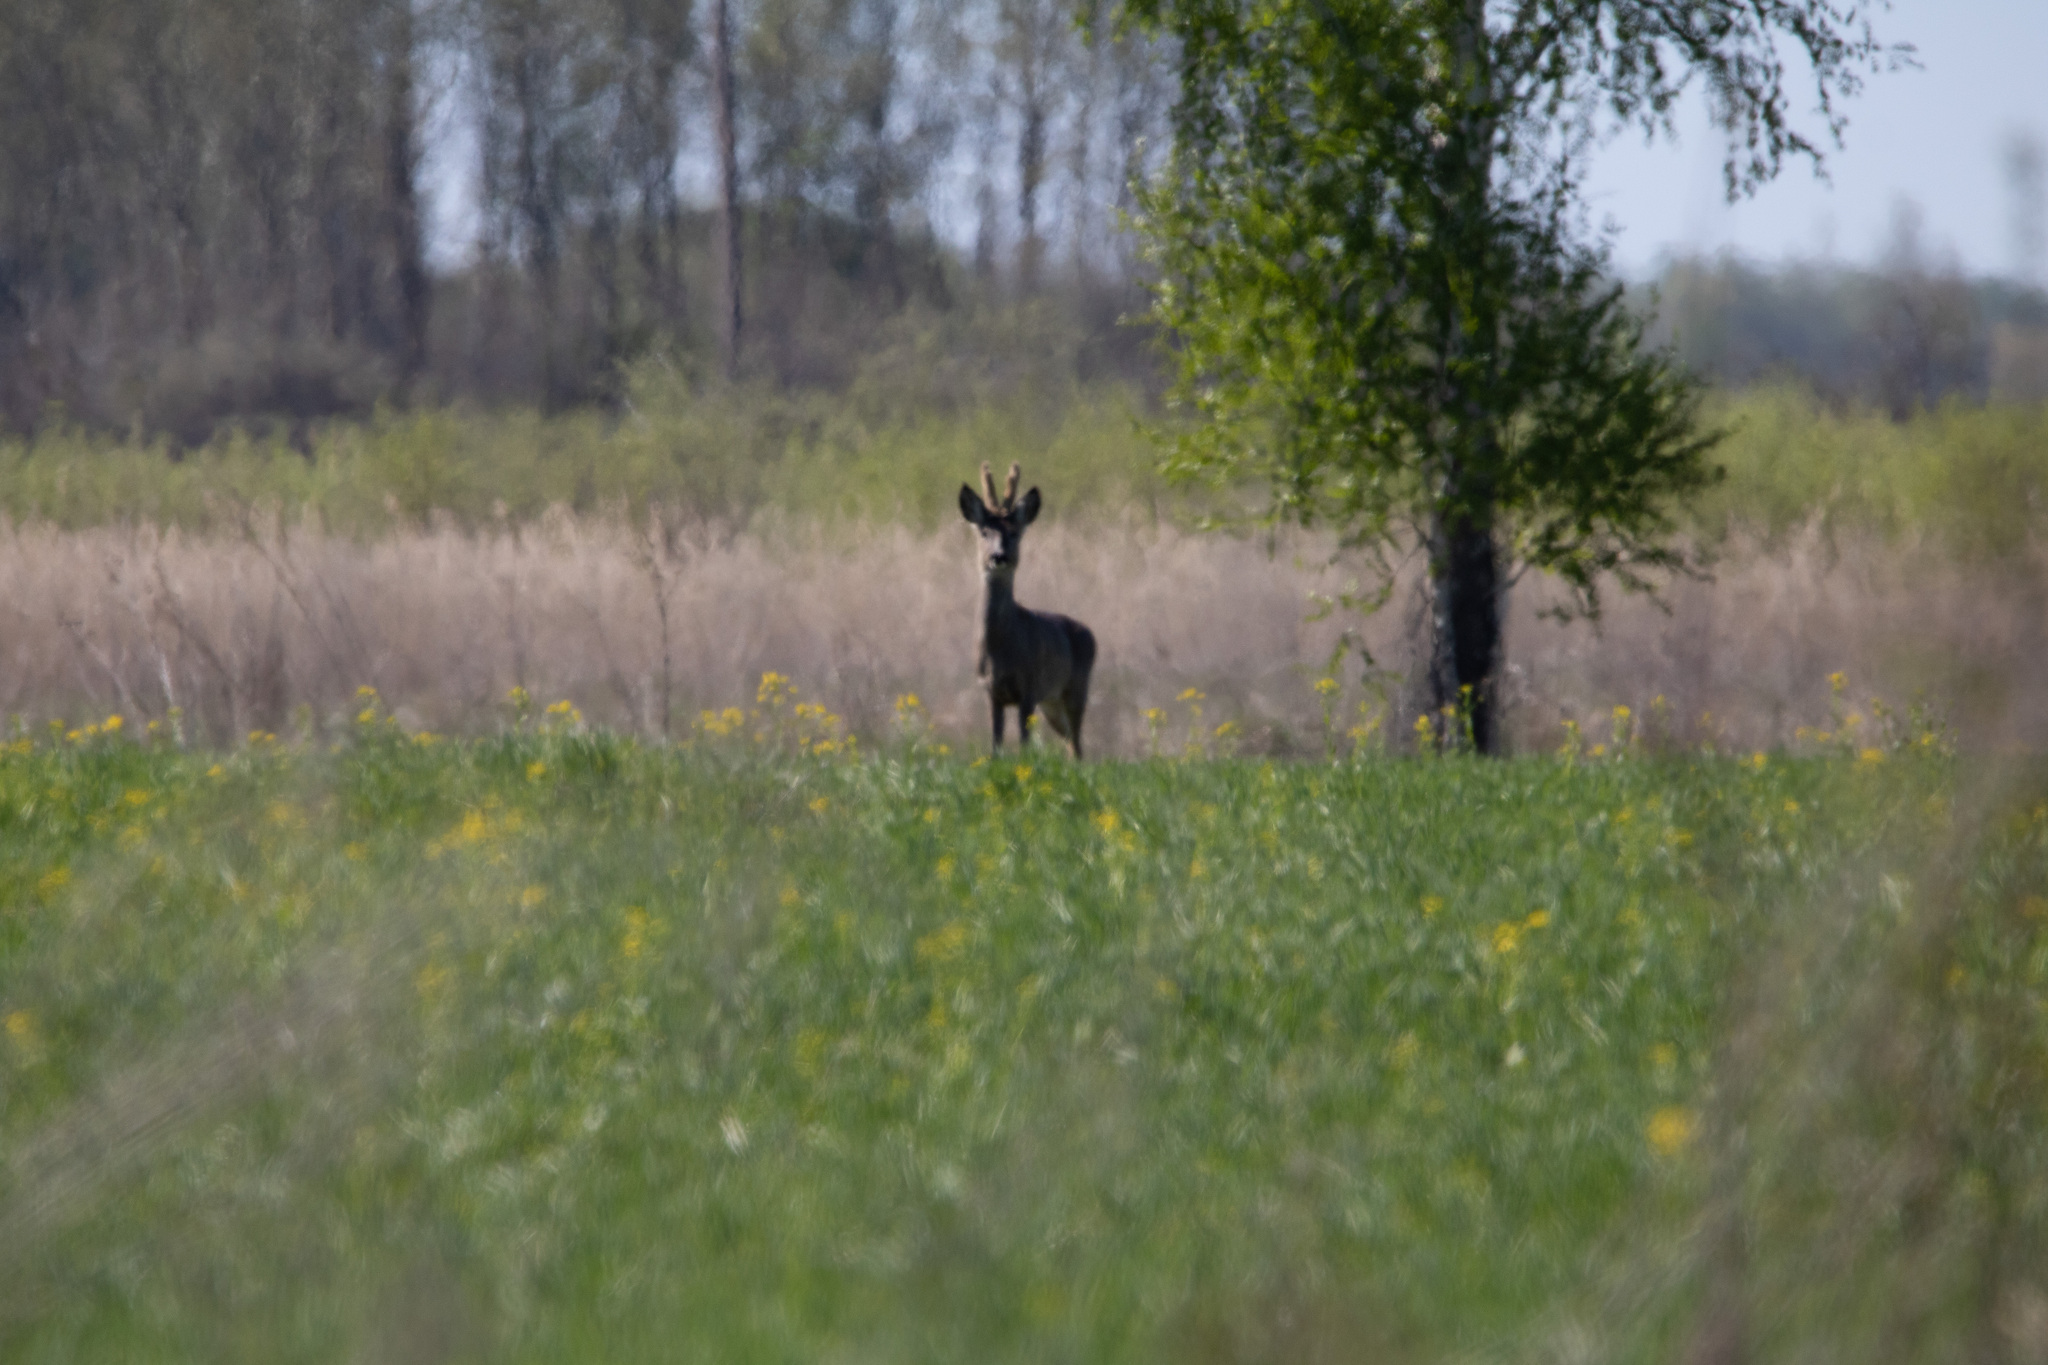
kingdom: Animalia
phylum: Chordata
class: Mammalia
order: Artiodactyla
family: Cervidae
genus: Capreolus
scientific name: Capreolus capreolus
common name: Western roe deer
